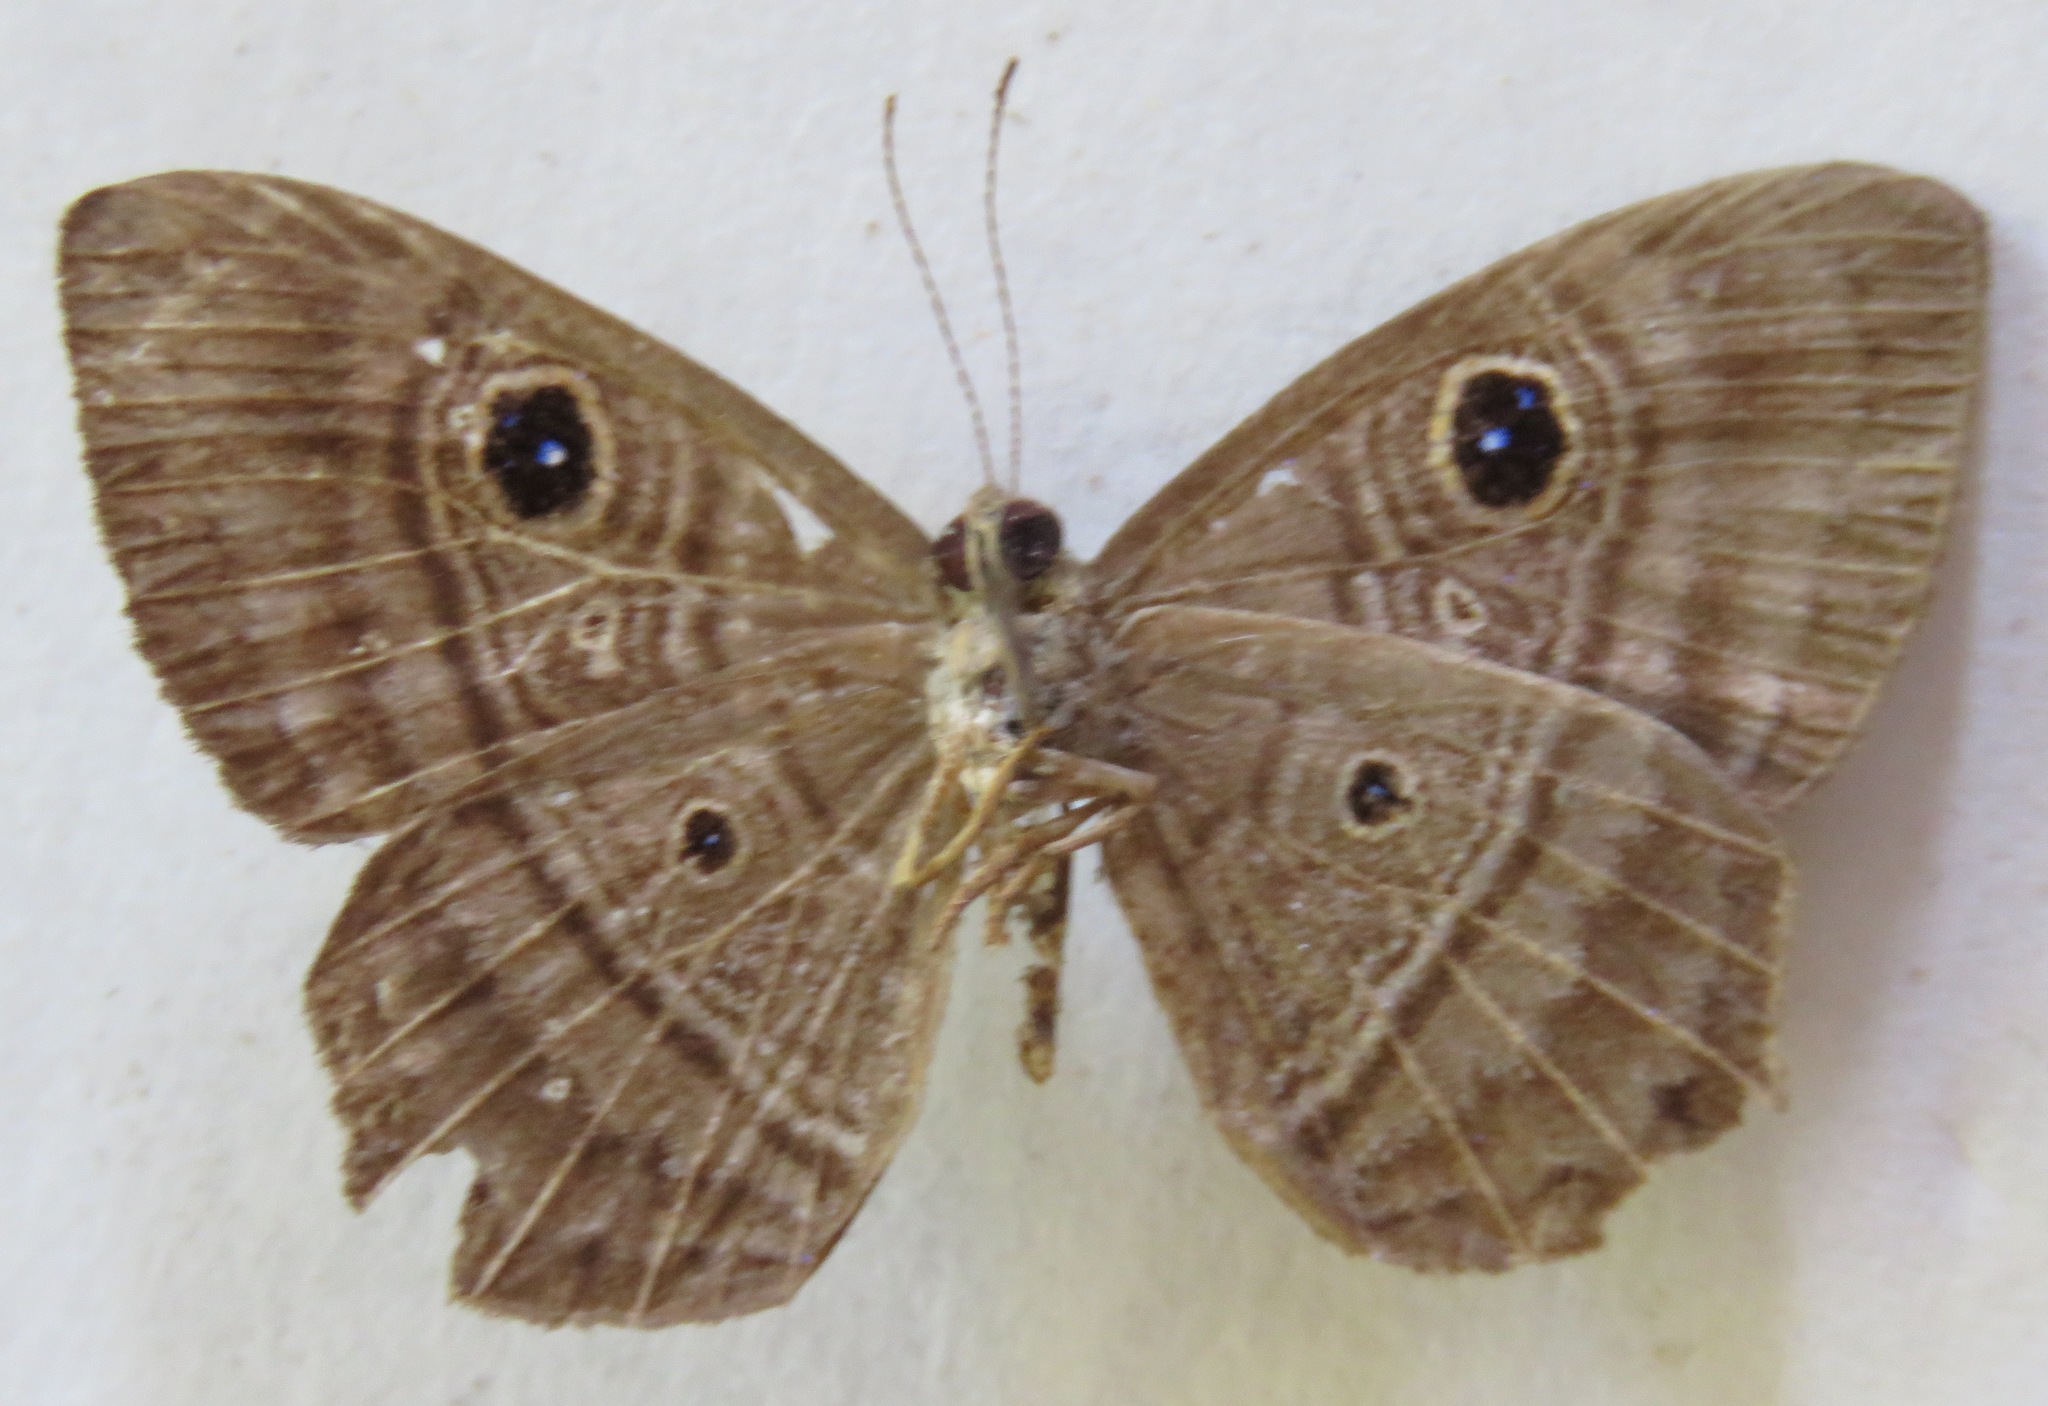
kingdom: Animalia
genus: Mesosemia
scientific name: Mesosemia
